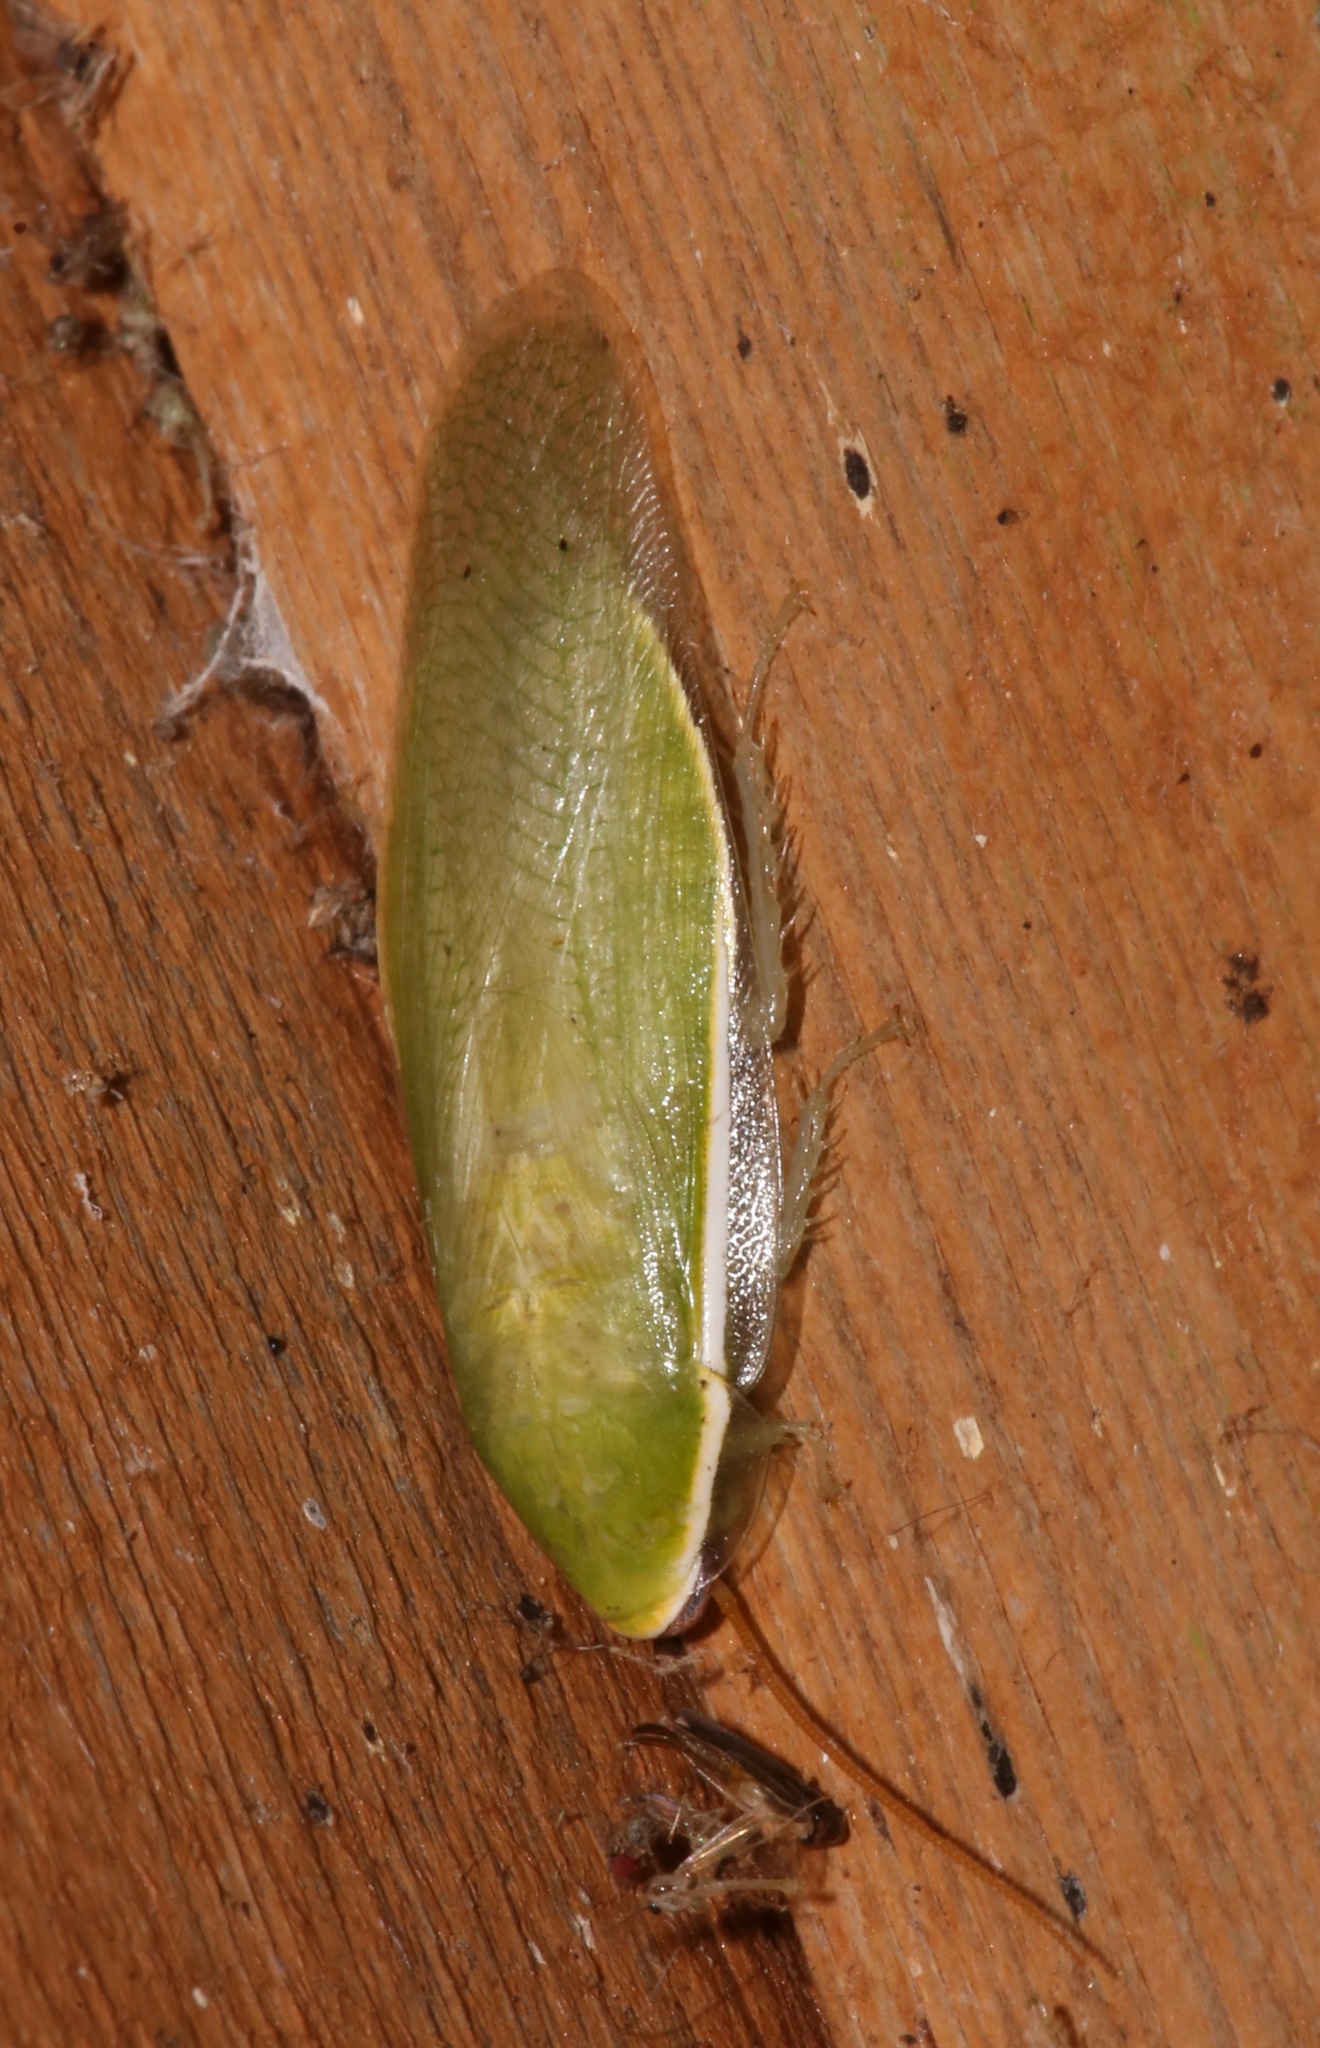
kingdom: Animalia
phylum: Arthropoda
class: Insecta
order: Blattodea
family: Blaberidae
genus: Panchlora
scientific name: Panchlora nivea
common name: Cuban cockroach
